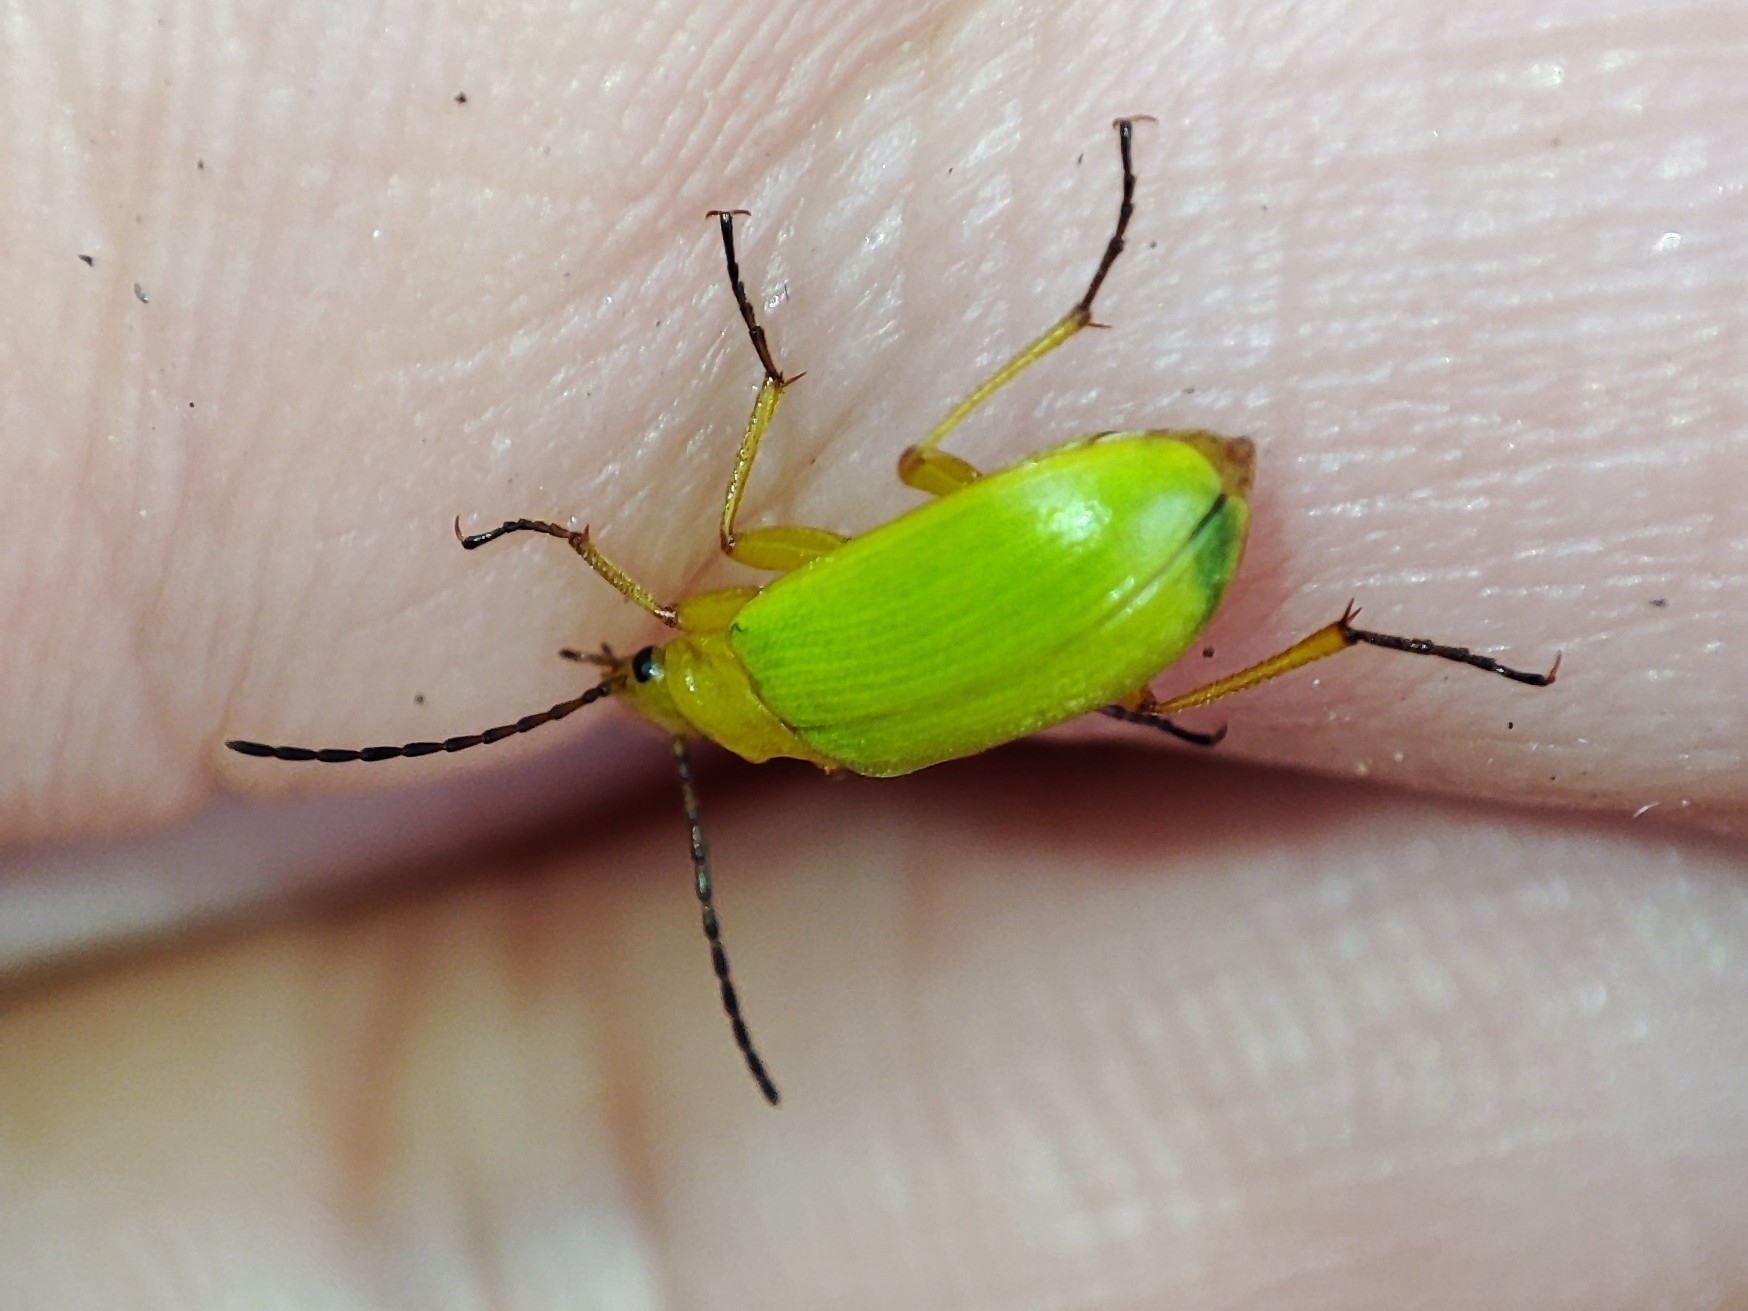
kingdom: Animalia
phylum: Arthropoda
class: Insecta
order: Coleoptera
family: Tenebrionidae
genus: Cteniopus
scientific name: Cteniopus sulphureus
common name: Sulphur beetle
